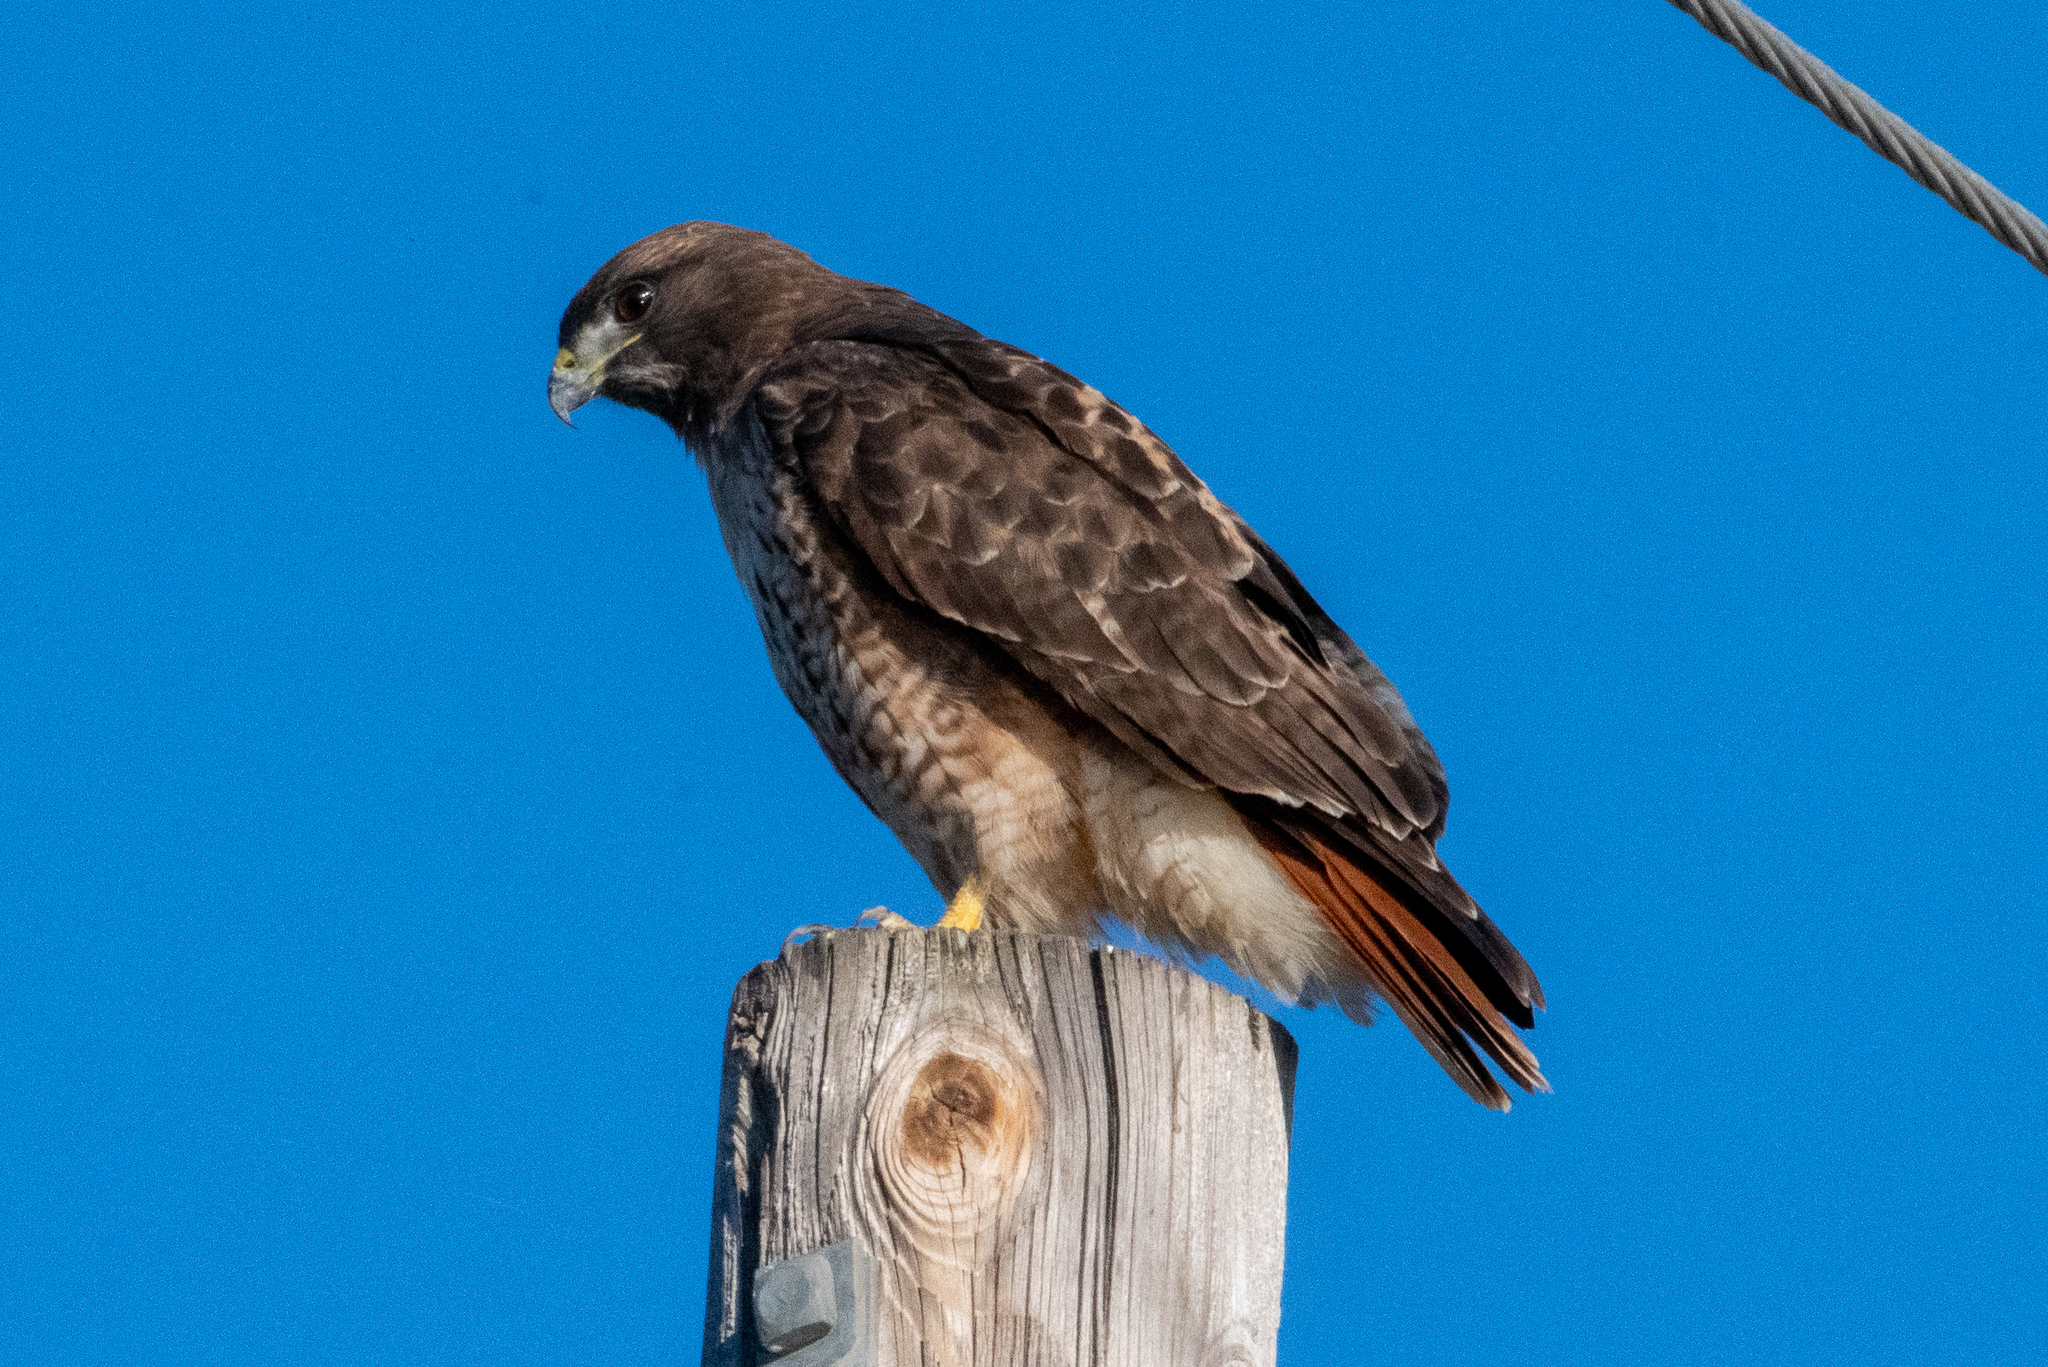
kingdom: Animalia
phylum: Chordata
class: Aves
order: Accipitriformes
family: Accipitridae
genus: Buteo
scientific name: Buteo jamaicensis
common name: Red-tailed hawk
